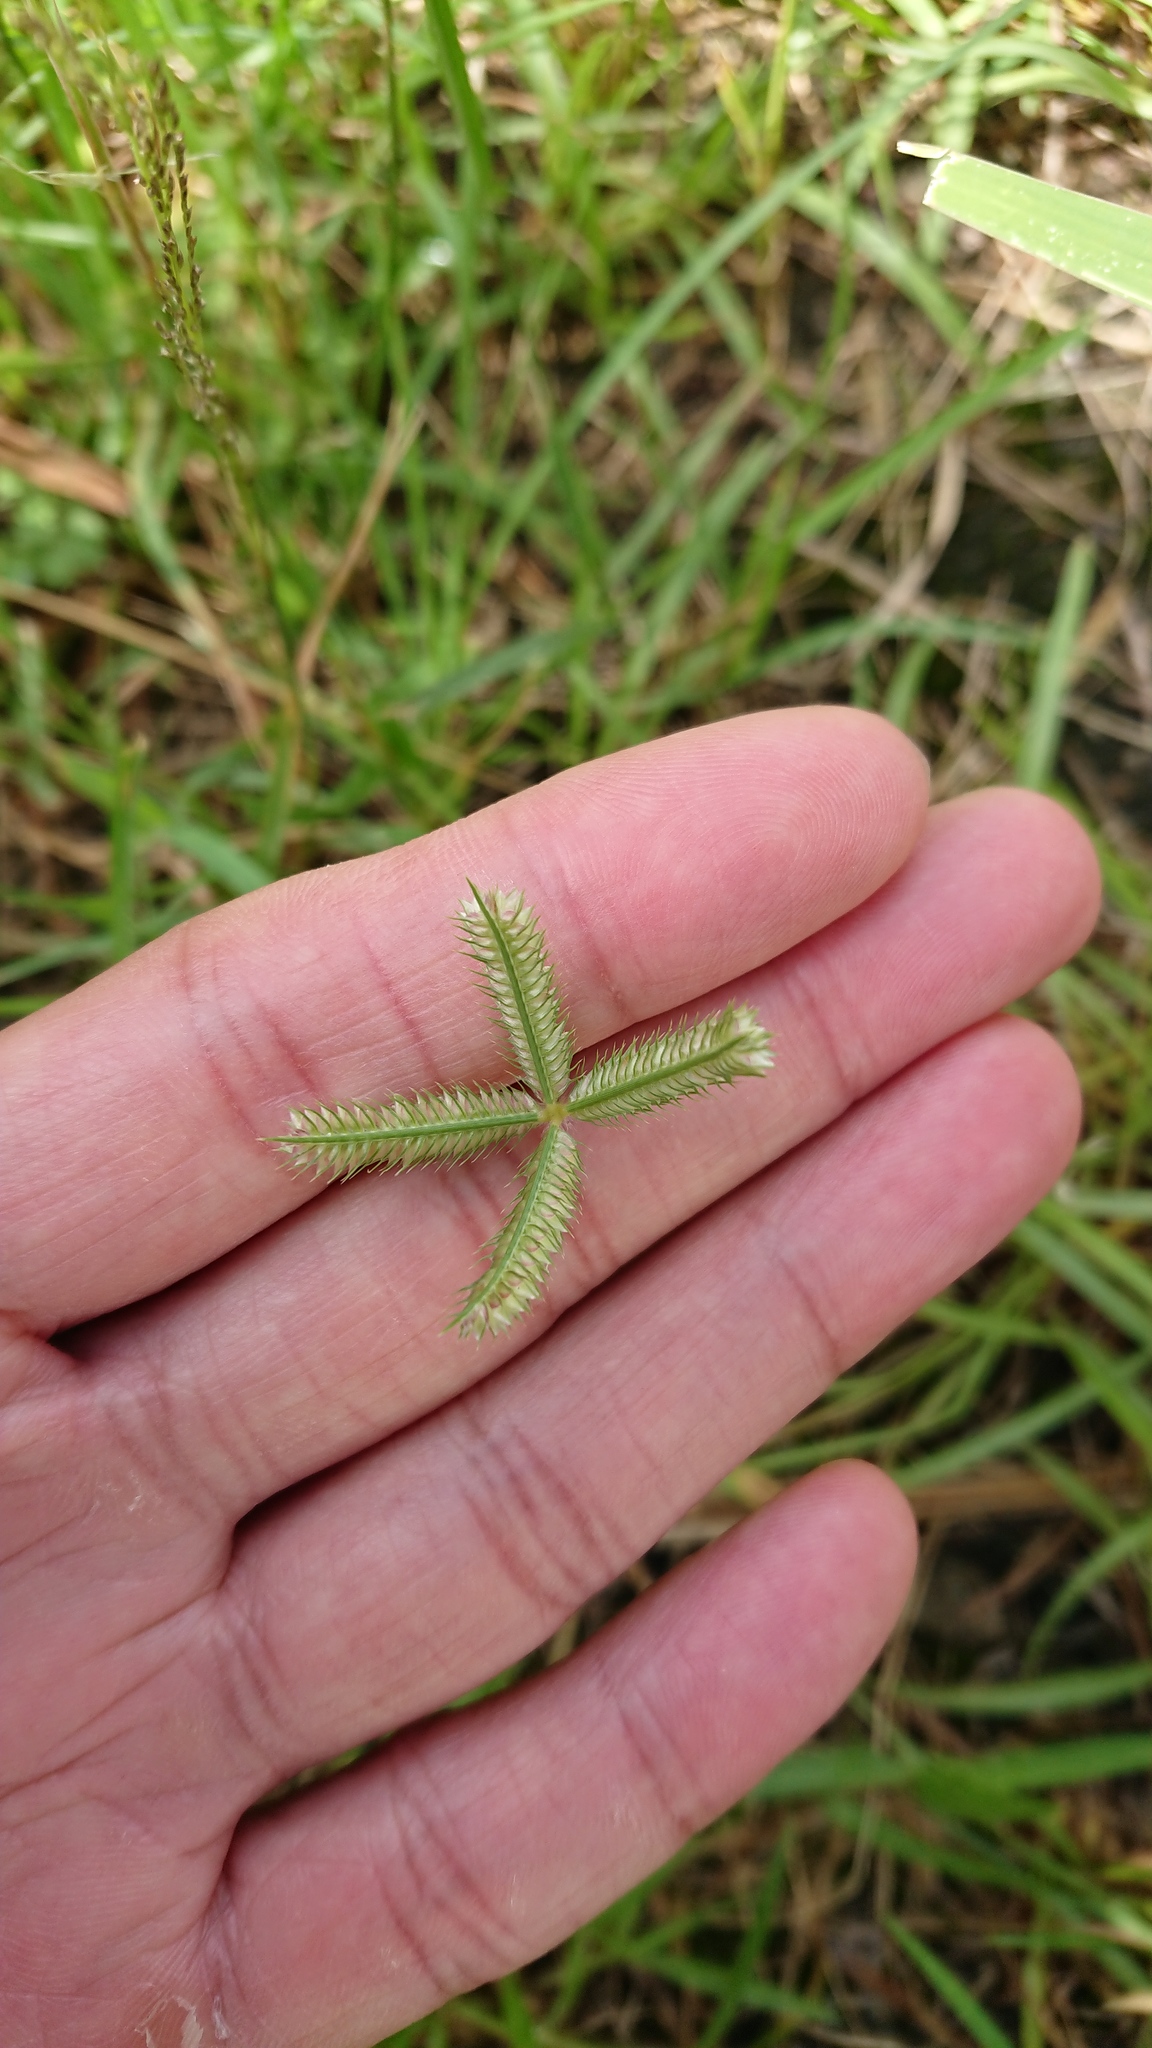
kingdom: Plantae
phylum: Tracheophyta
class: Liliopsida
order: Poales
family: Poaceae
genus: Dactyloctenium
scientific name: Dactyloctenium aegyptium
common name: Egyptian grass
